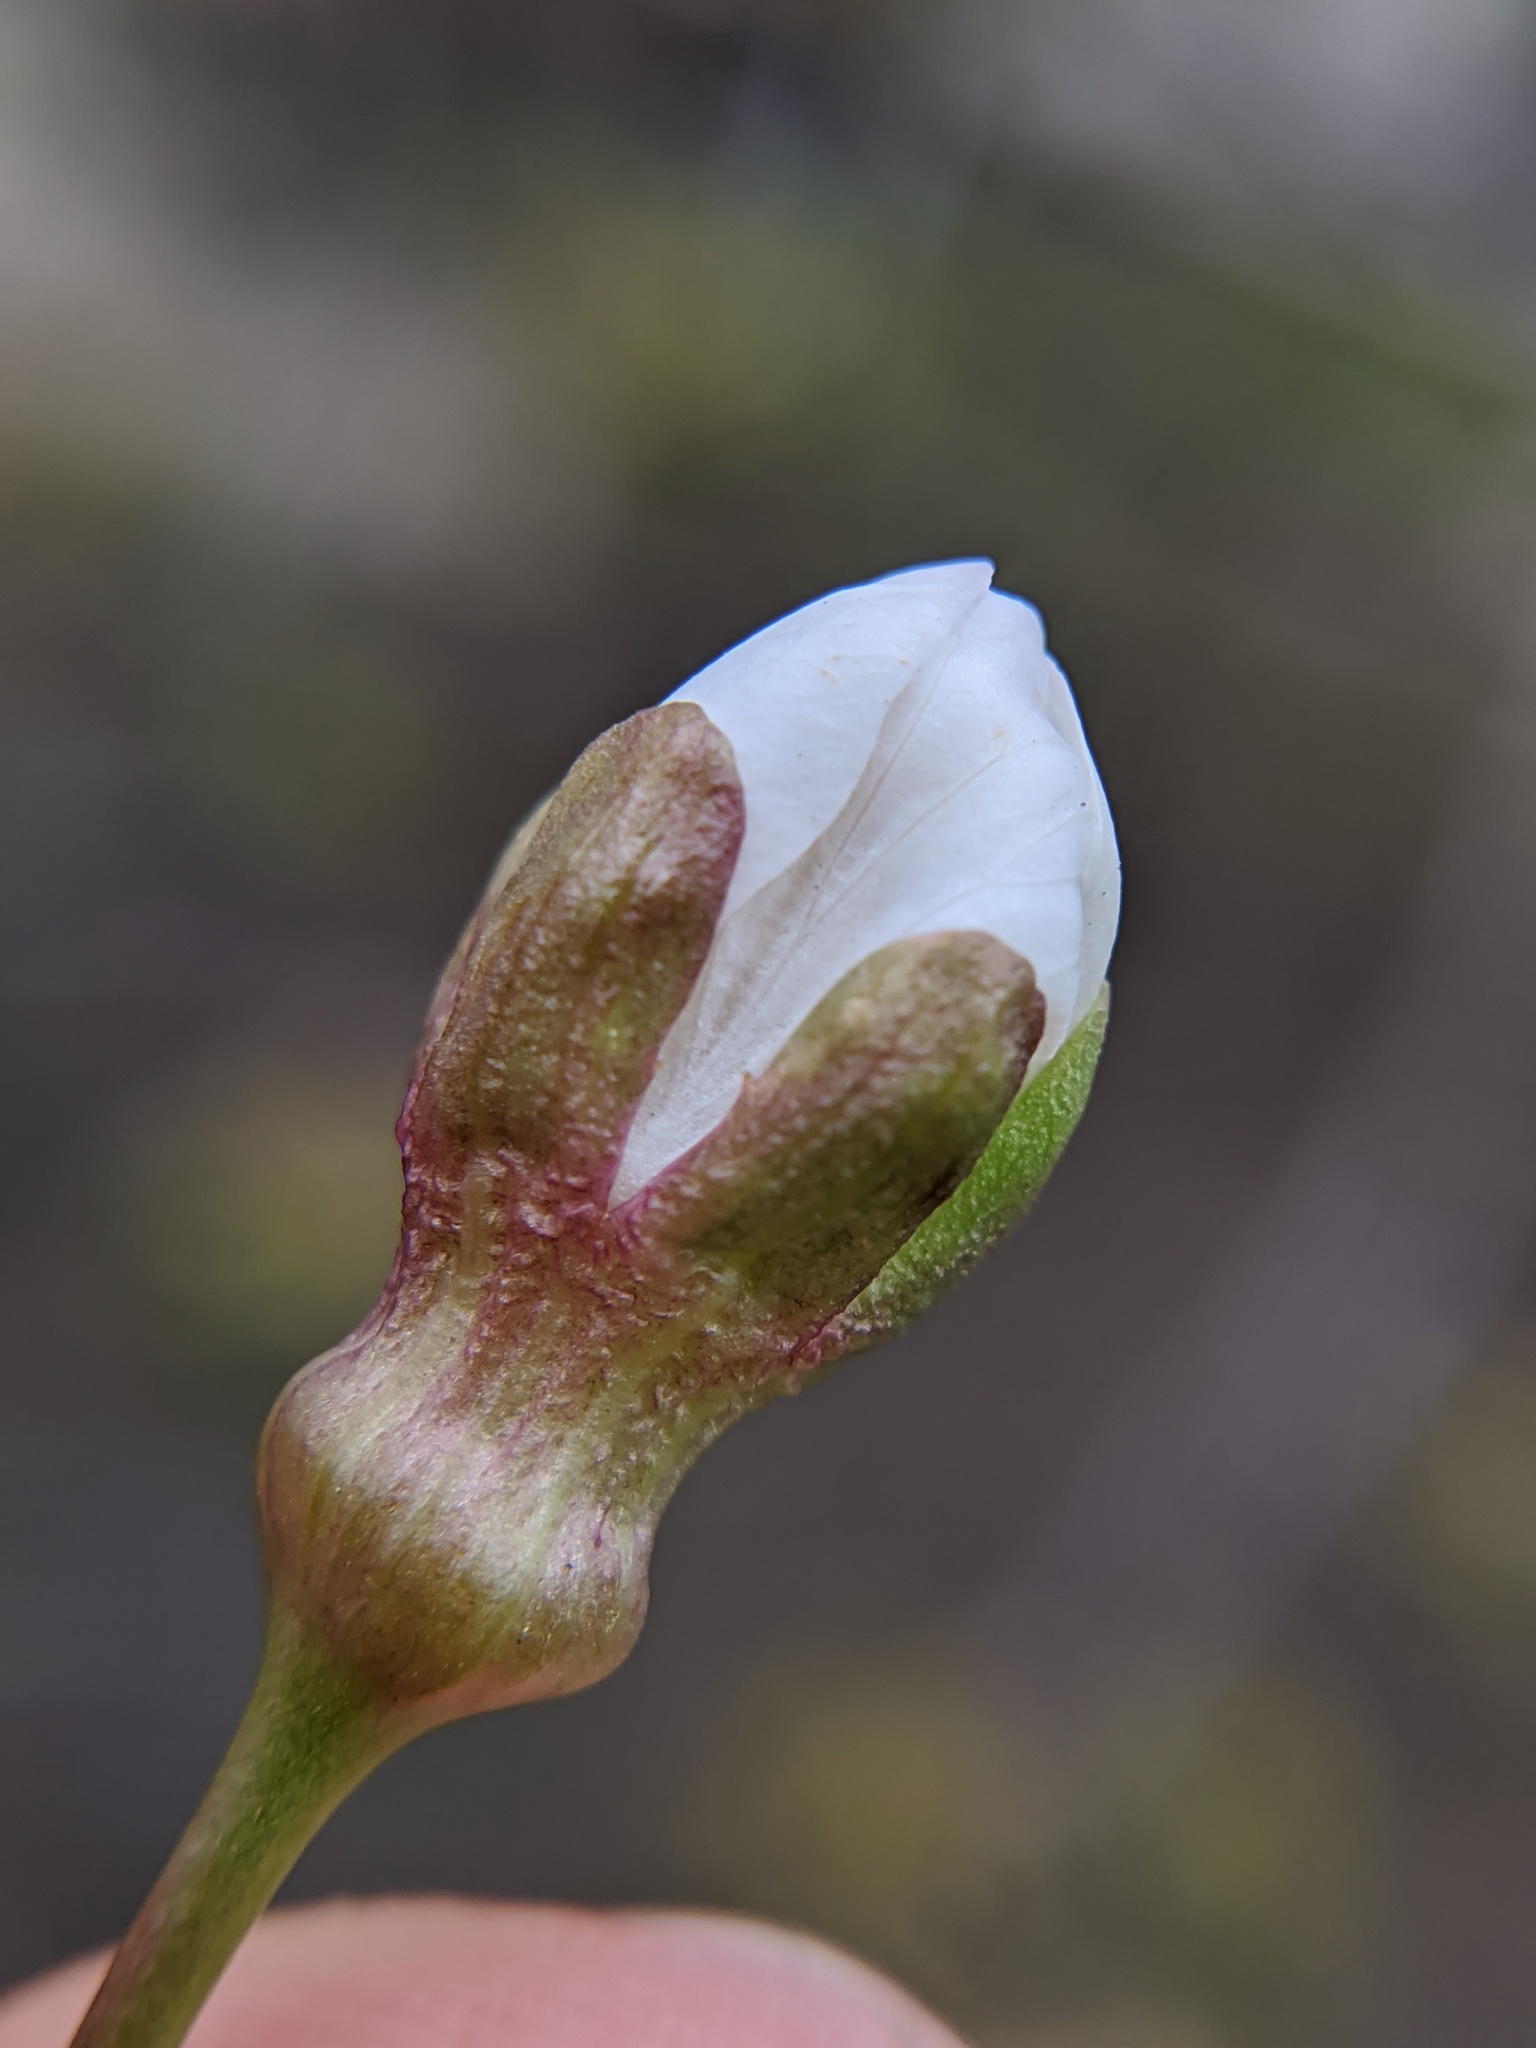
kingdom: Plantae
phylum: Tracheophyta
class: Magnoliopsida
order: Rosales
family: Rosaceae
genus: Prunus
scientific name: Prunus avium
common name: Sweet cherry
